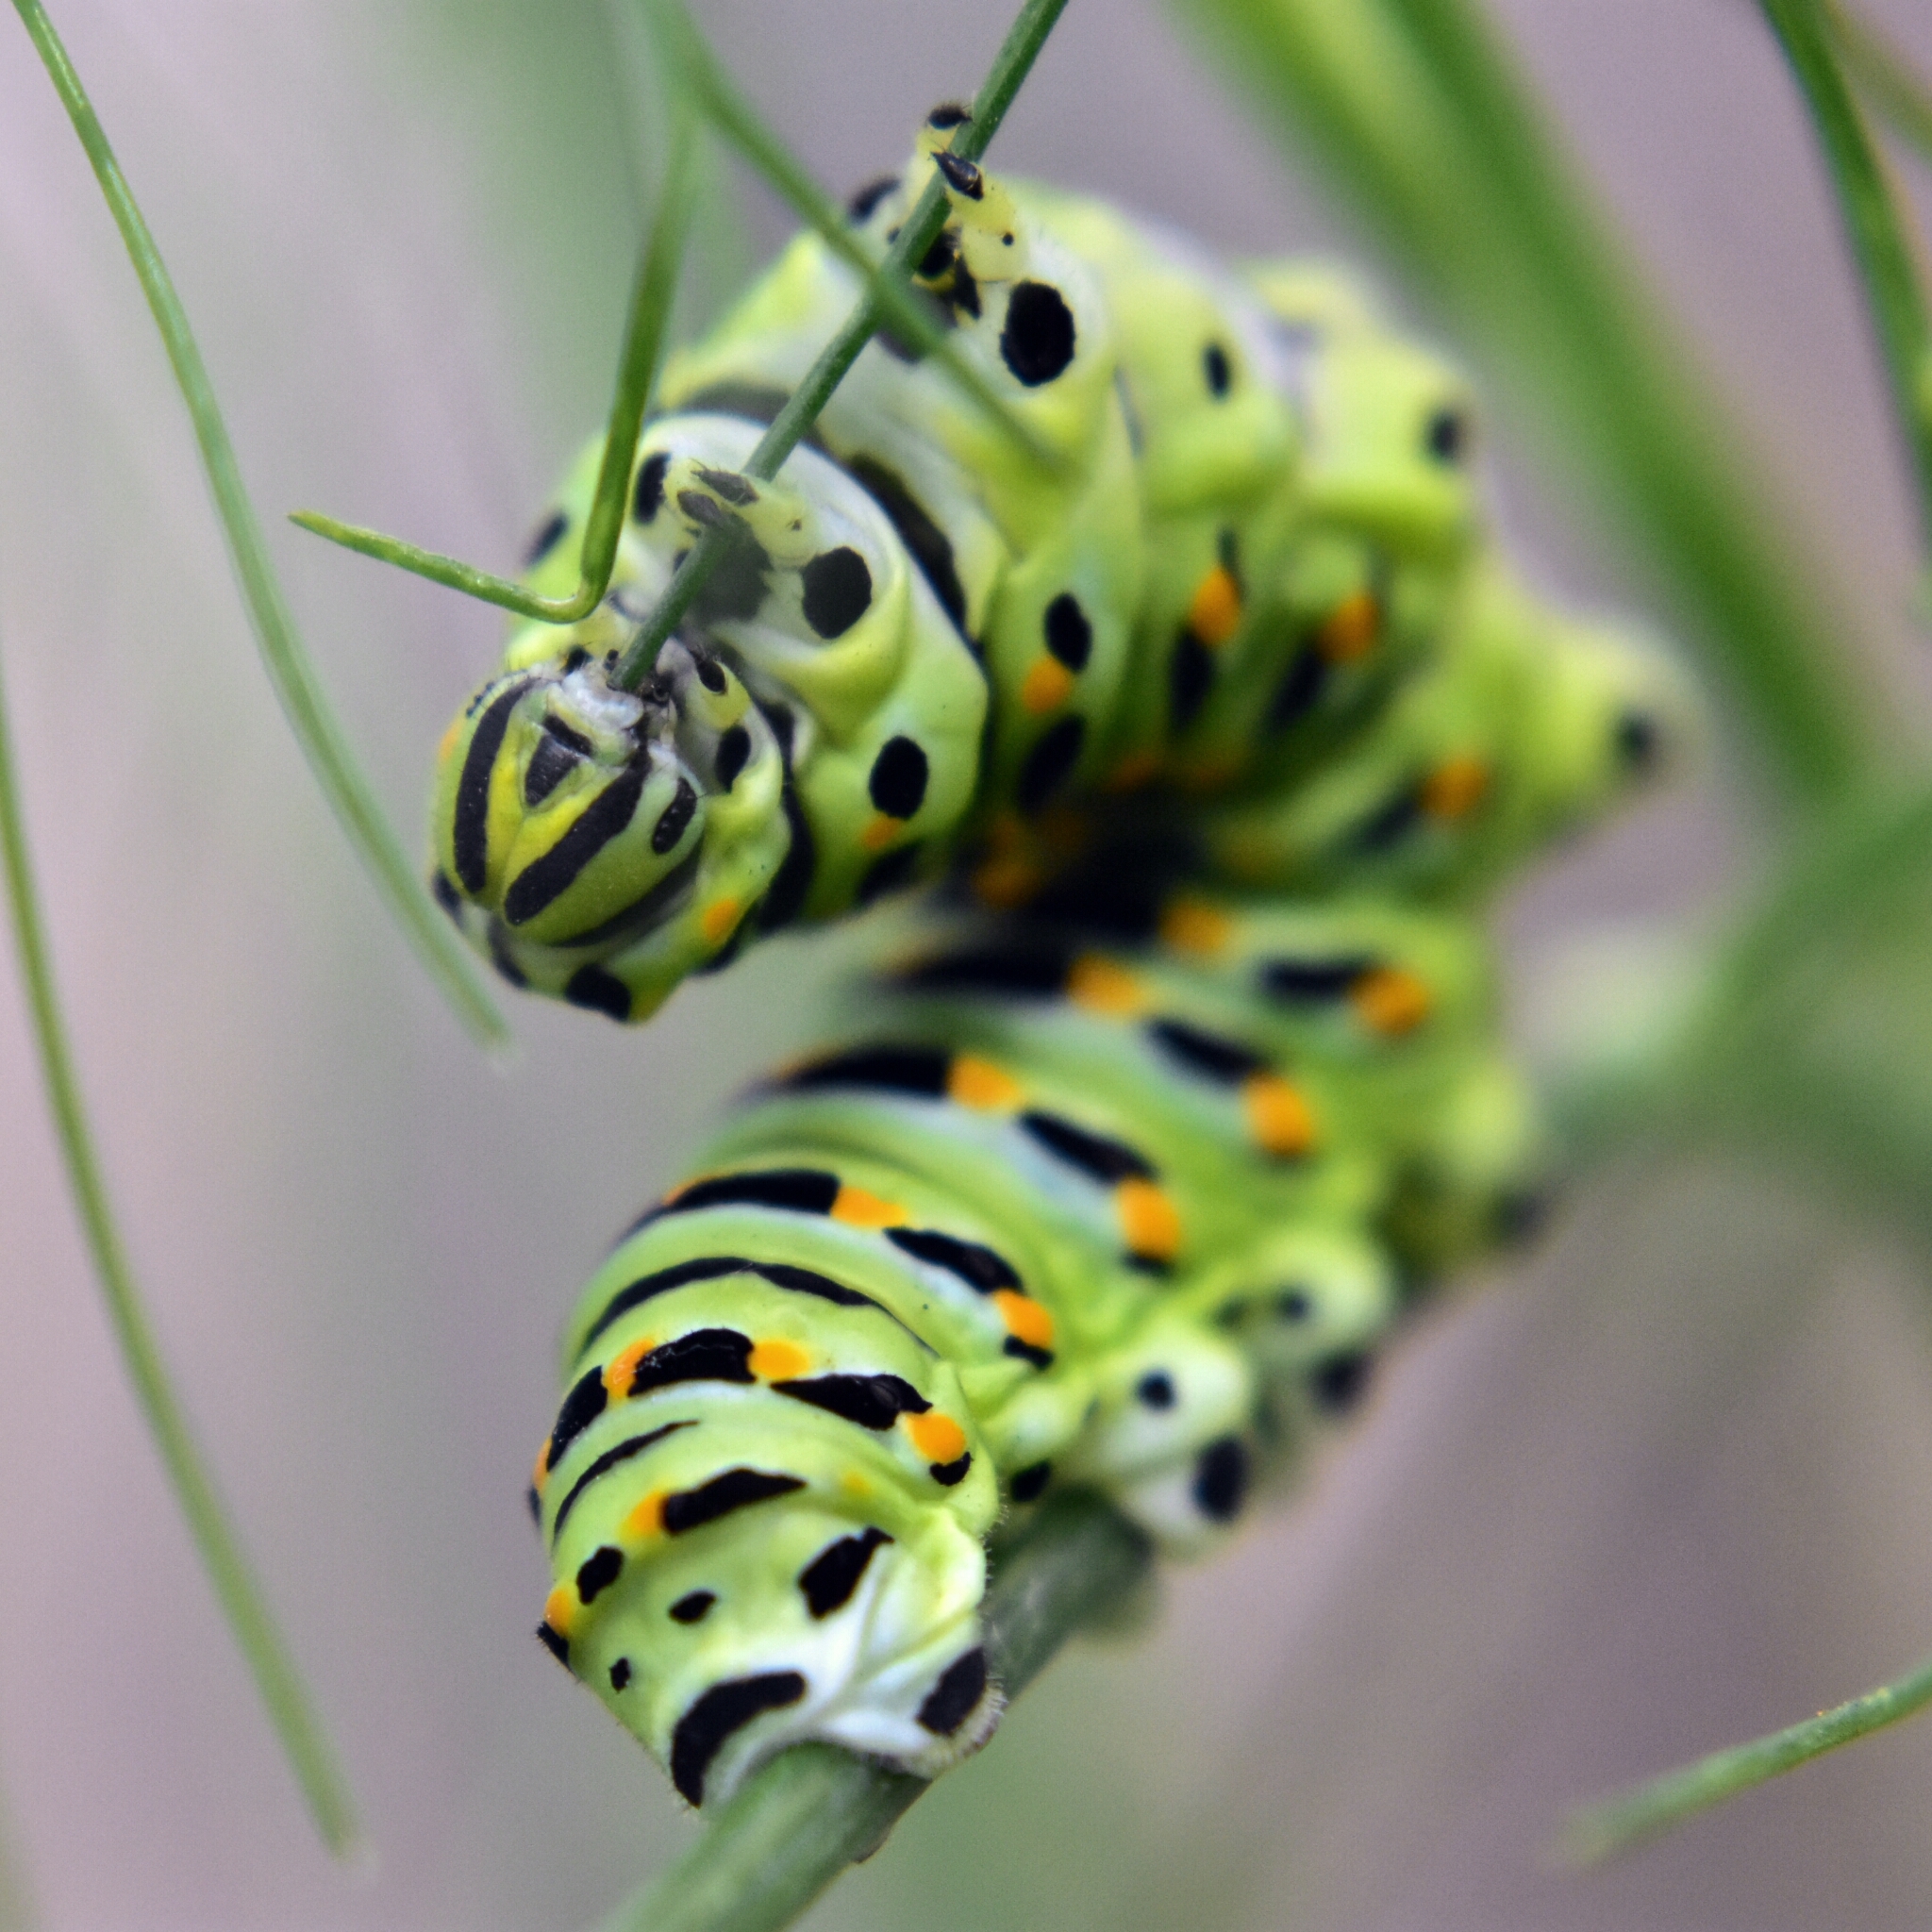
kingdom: Animalia
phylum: Arthropoda
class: Insecta
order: Lepidoptera
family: Papilionidae
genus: Papilio
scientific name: Papilio zelicaon
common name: Anise swallowtail
